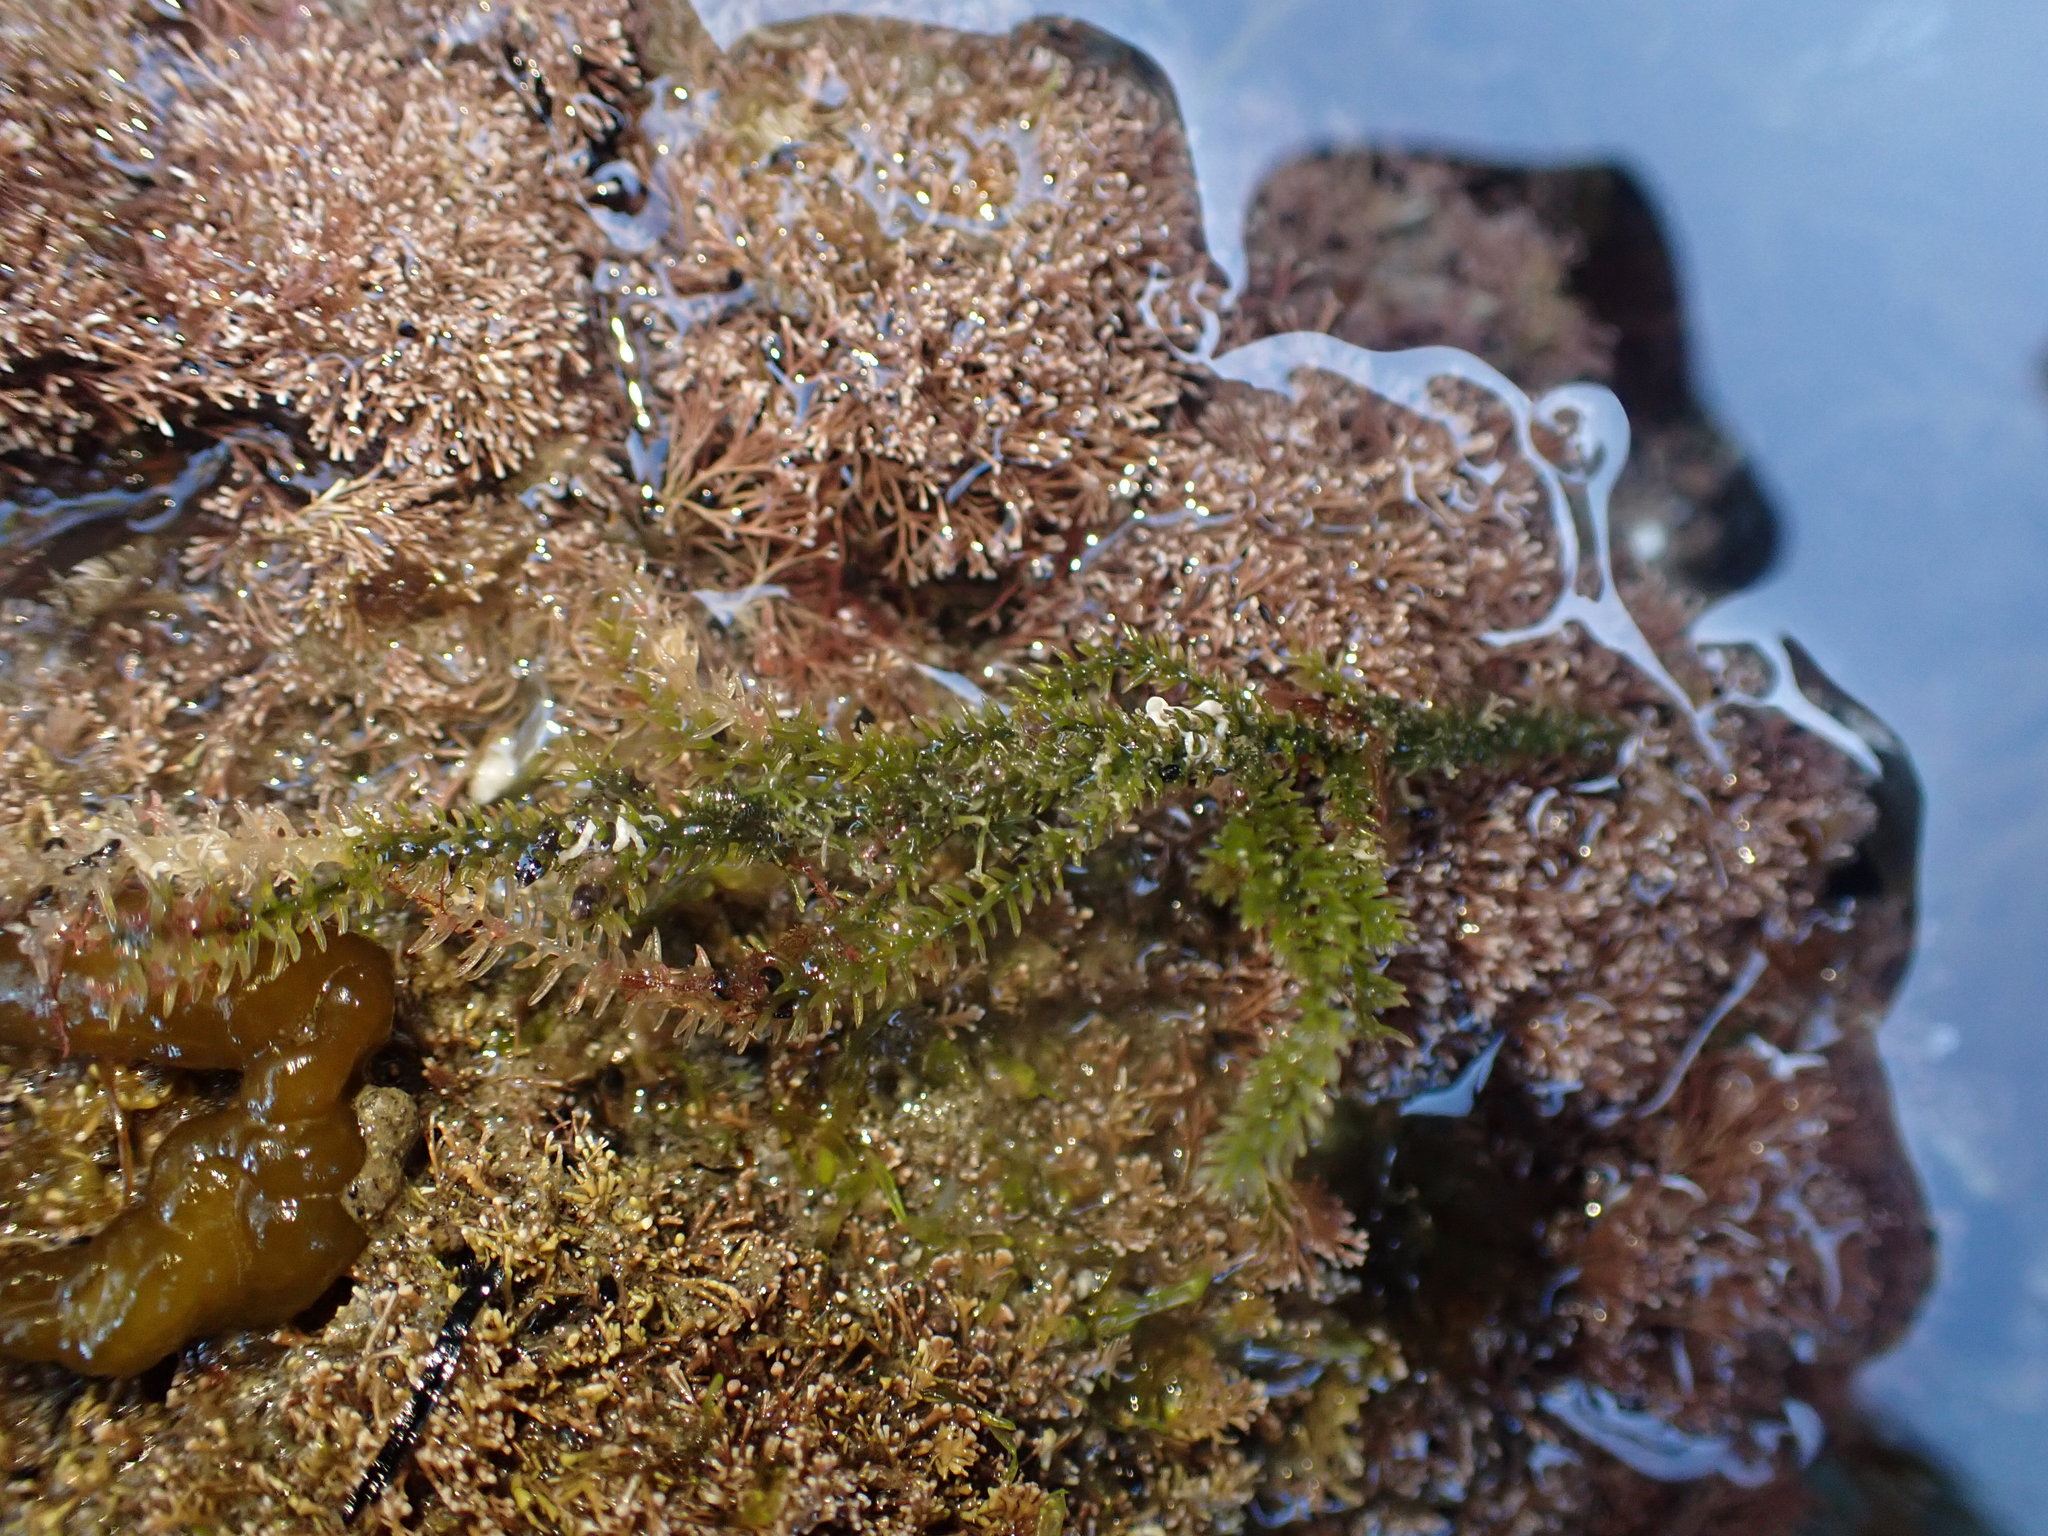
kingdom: Plantae
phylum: Chlorophyta
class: Ulvophyceae
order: Bryopsidales
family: Caulerpaceae
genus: Caulerpa
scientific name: Caulerpa brownii
